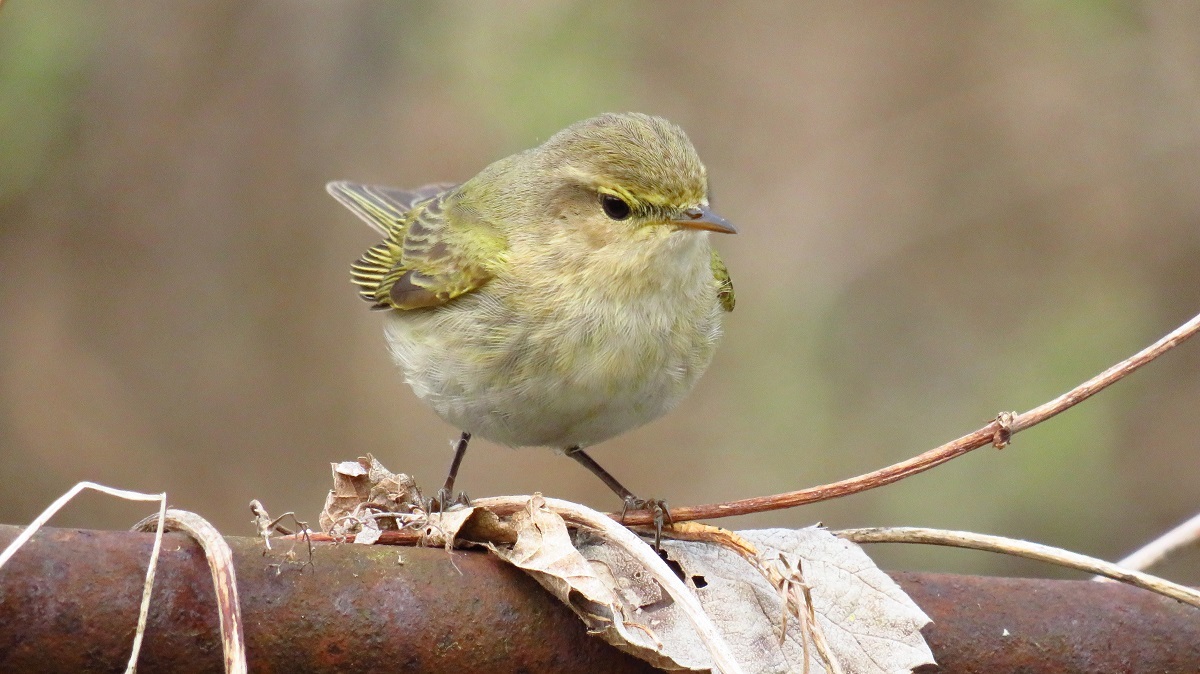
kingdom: Animalia
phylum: Chordata
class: Aves
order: Passeriformes
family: Phylloscopidae
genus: Phylloscopus
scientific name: Phylloscopus collybita
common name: Common chiffchaff
